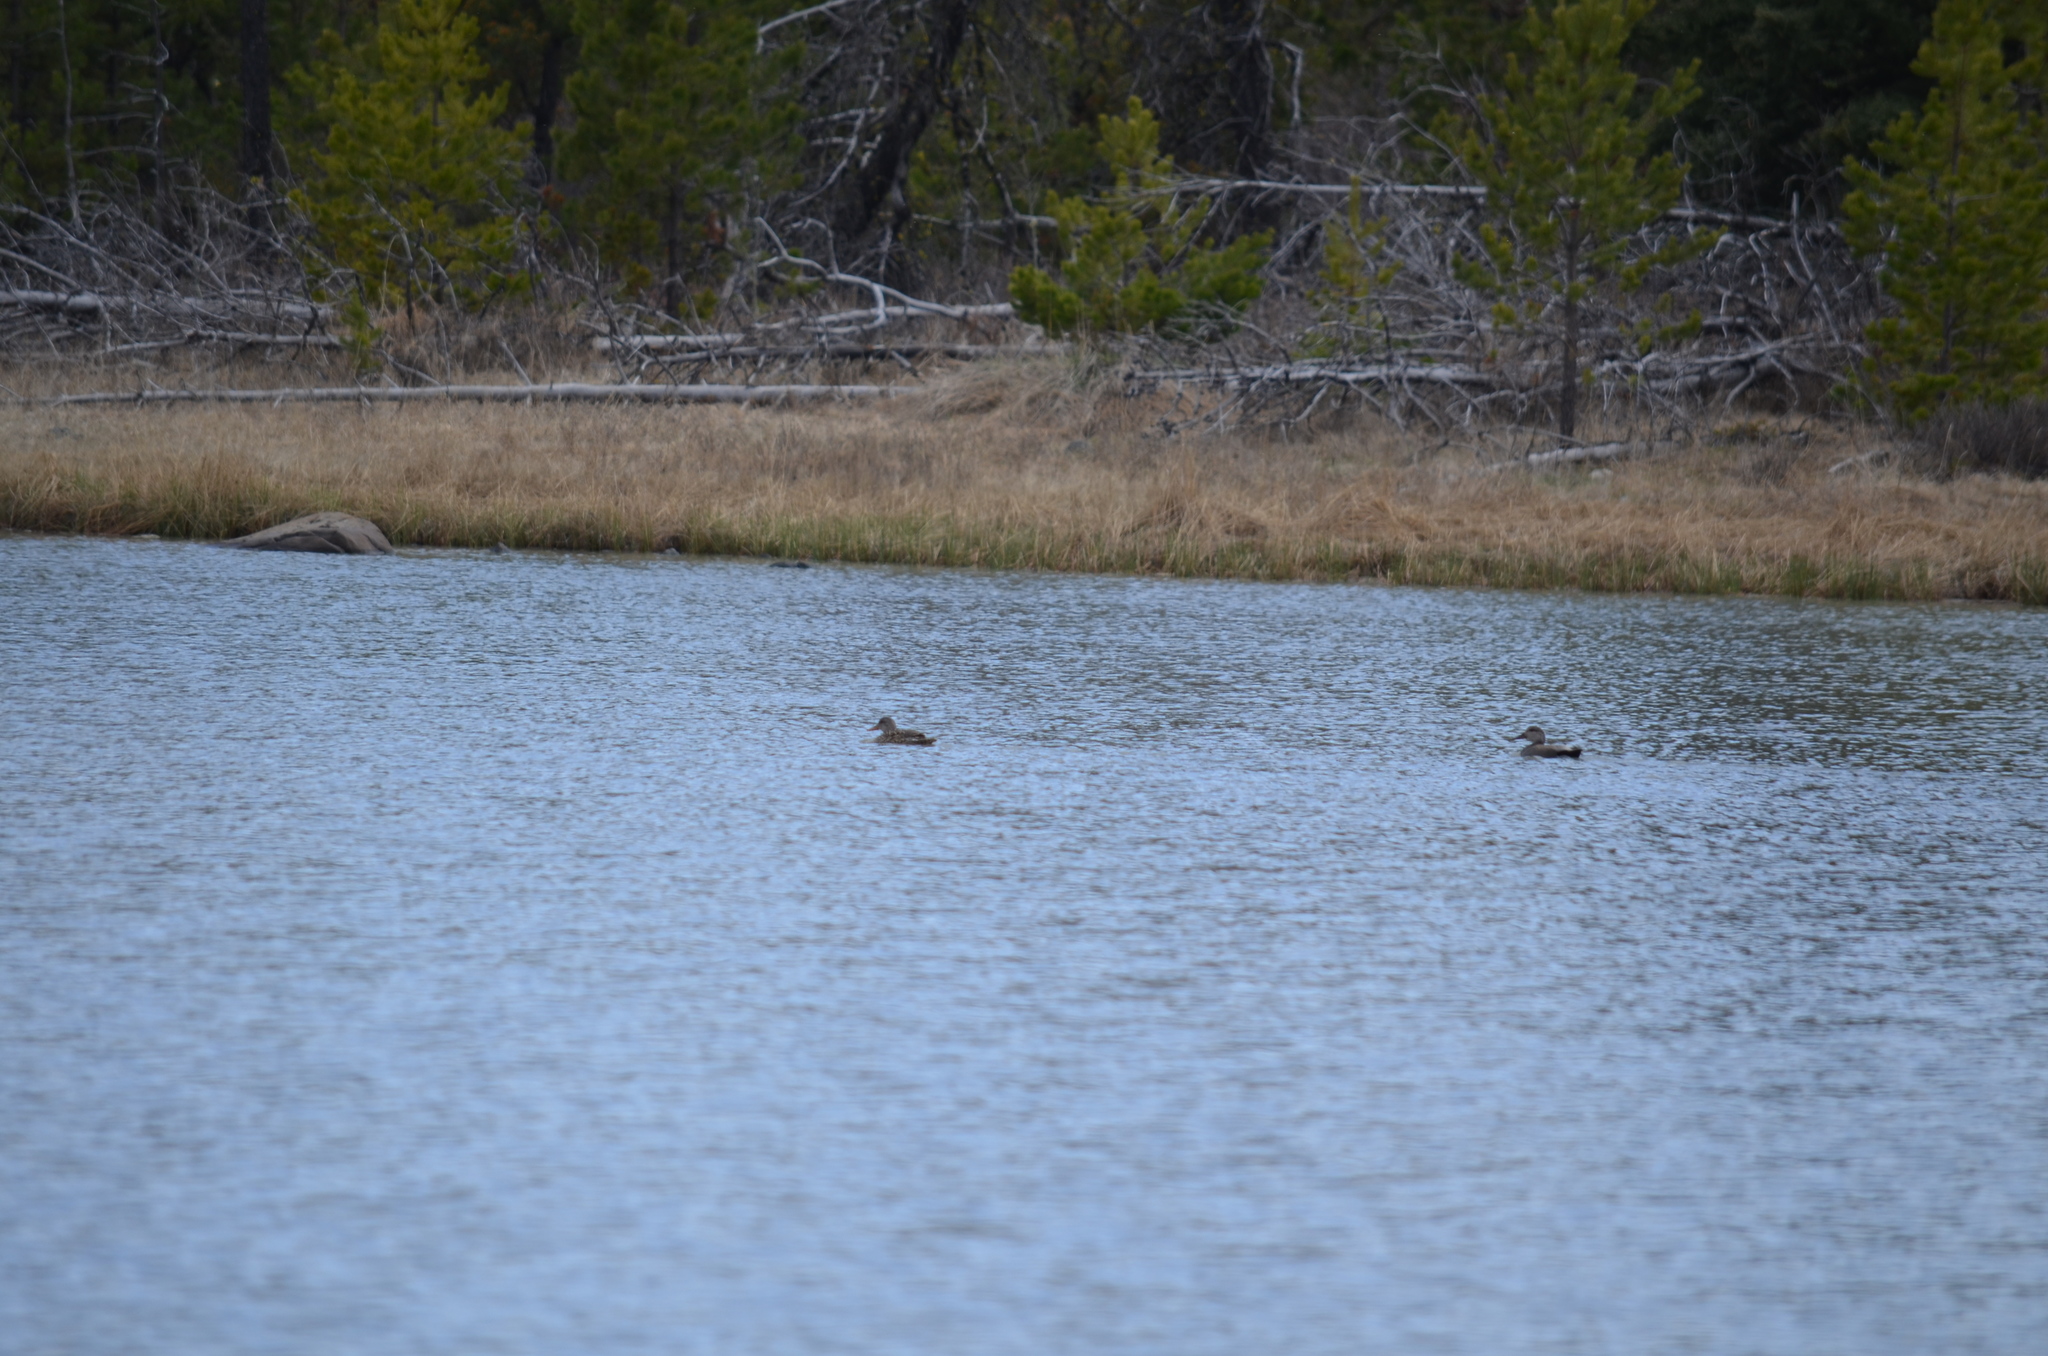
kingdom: Animalia
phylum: Chordata
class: Aves
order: Anseriformes
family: Anatidae
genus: Mareca
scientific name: Mareca strepera
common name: Gadwall
